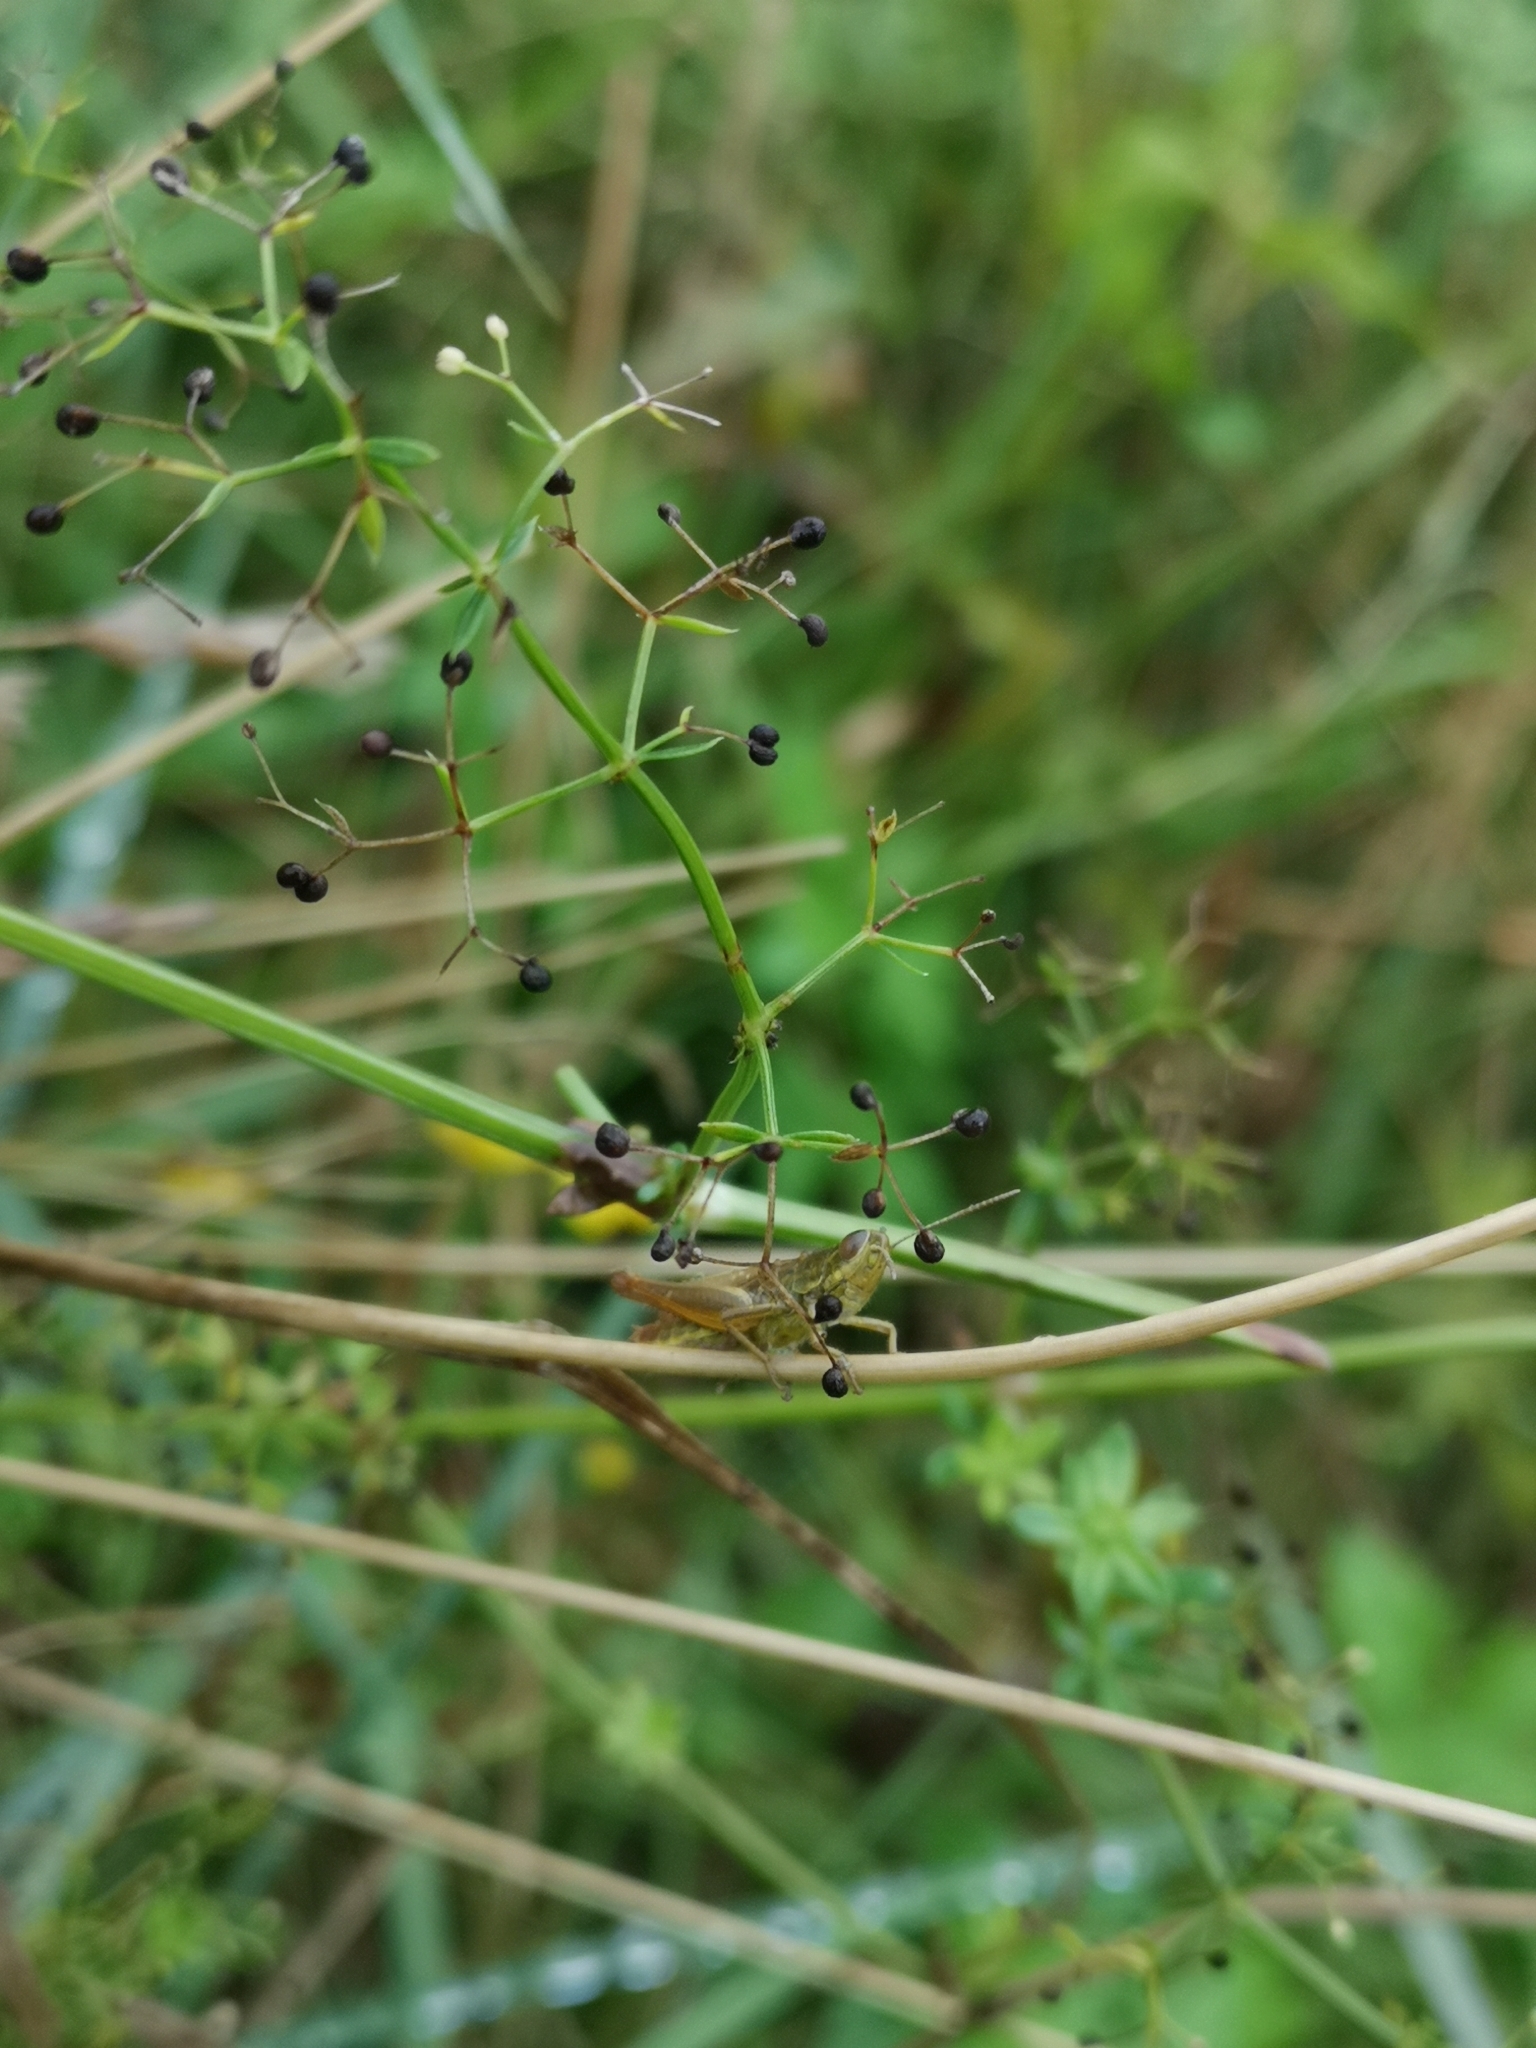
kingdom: Animalia
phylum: Arthropoda
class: Insecta
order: Orthoptera
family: Acrididae
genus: Euchorthippus
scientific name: Euchorthippus declivus
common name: Common straw grasshopper
